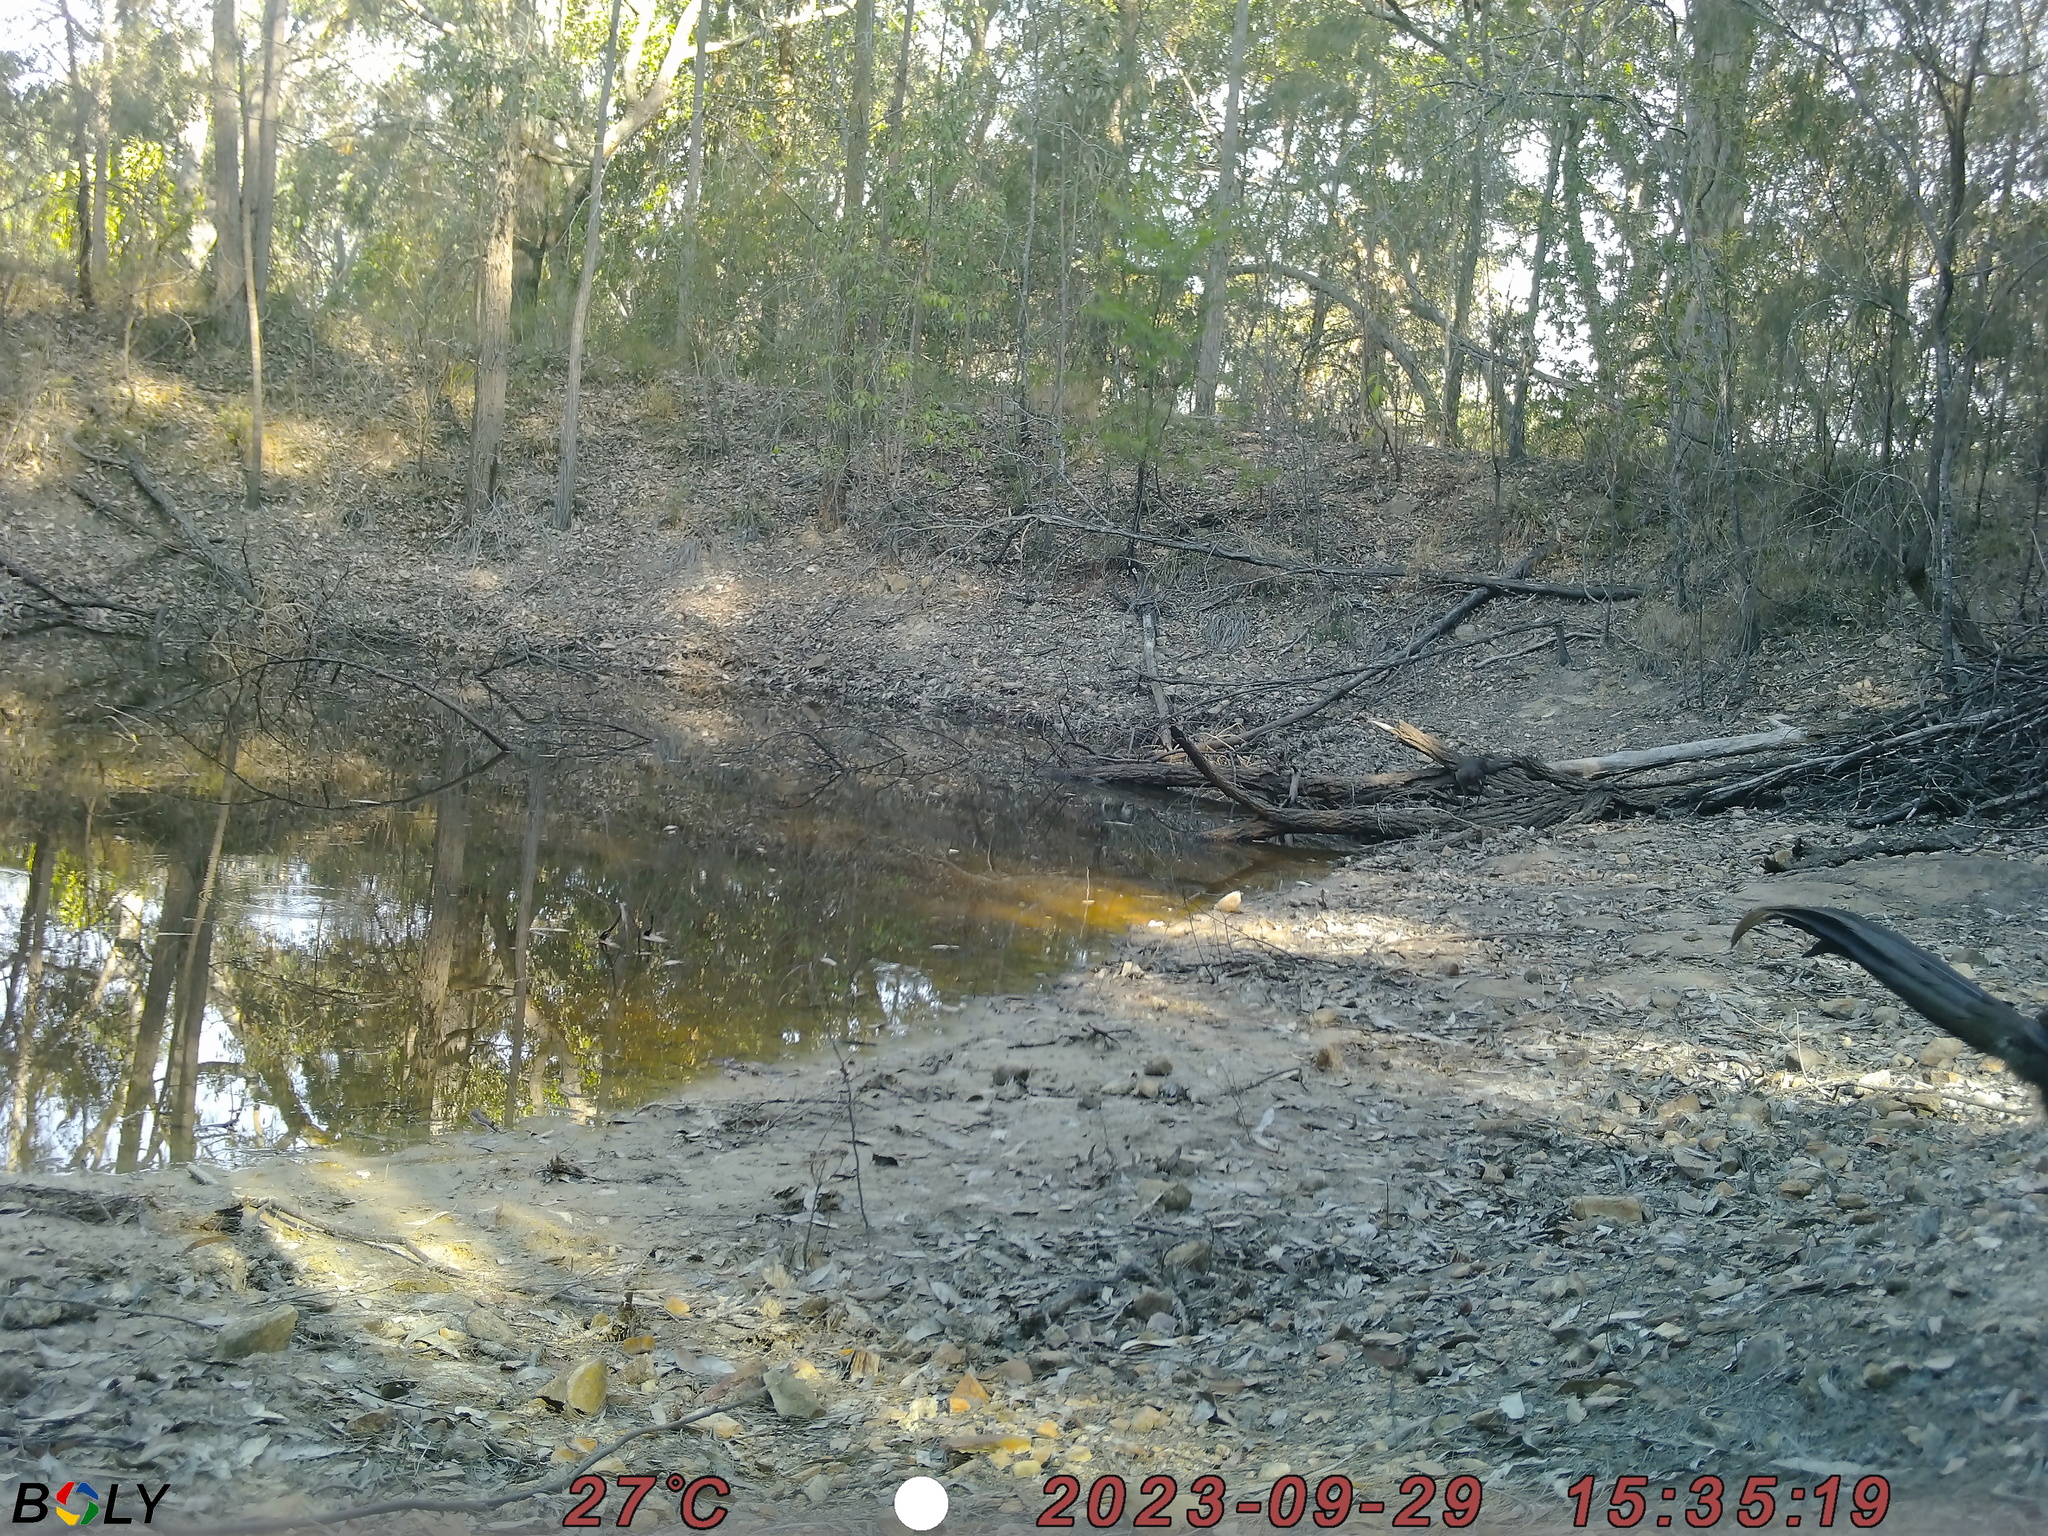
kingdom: Animalia
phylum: Chordata
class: Aves
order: Passeriformes
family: Menuridae
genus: Menura
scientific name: Menura novaehollandiae
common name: Superb lyrebird
